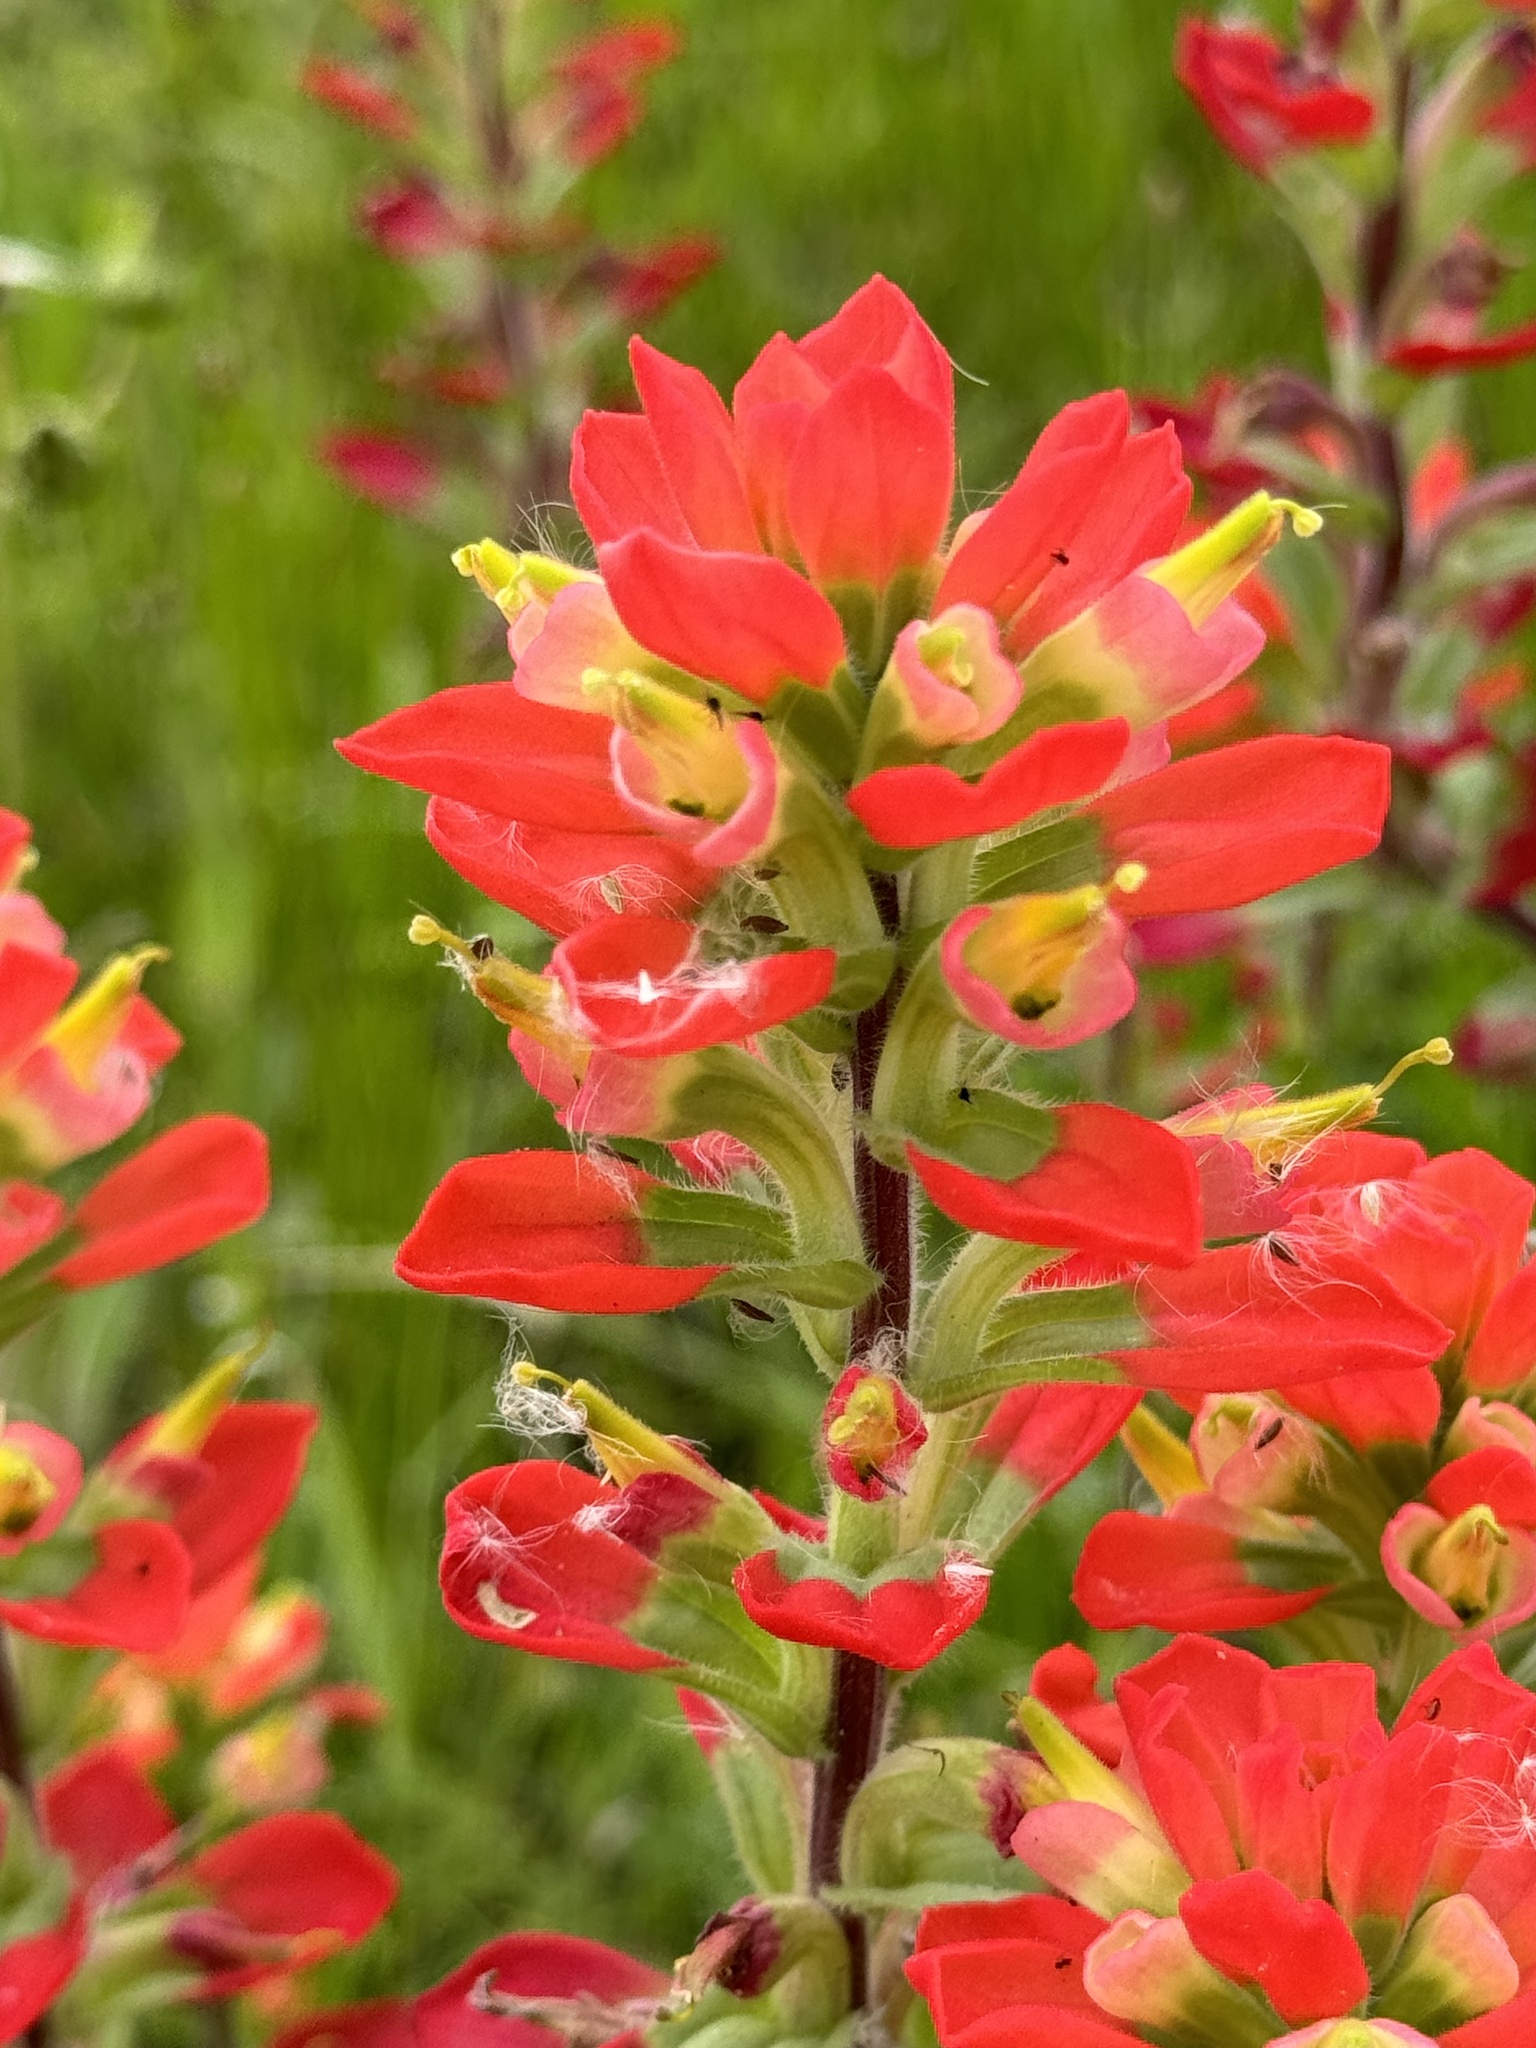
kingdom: Plantae
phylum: Tracheophyta
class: Magnoliopsida
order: Lamiales
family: Orobanchaceae
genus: Castilleja
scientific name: Castilleja indivisa
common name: Texas paintbrush
